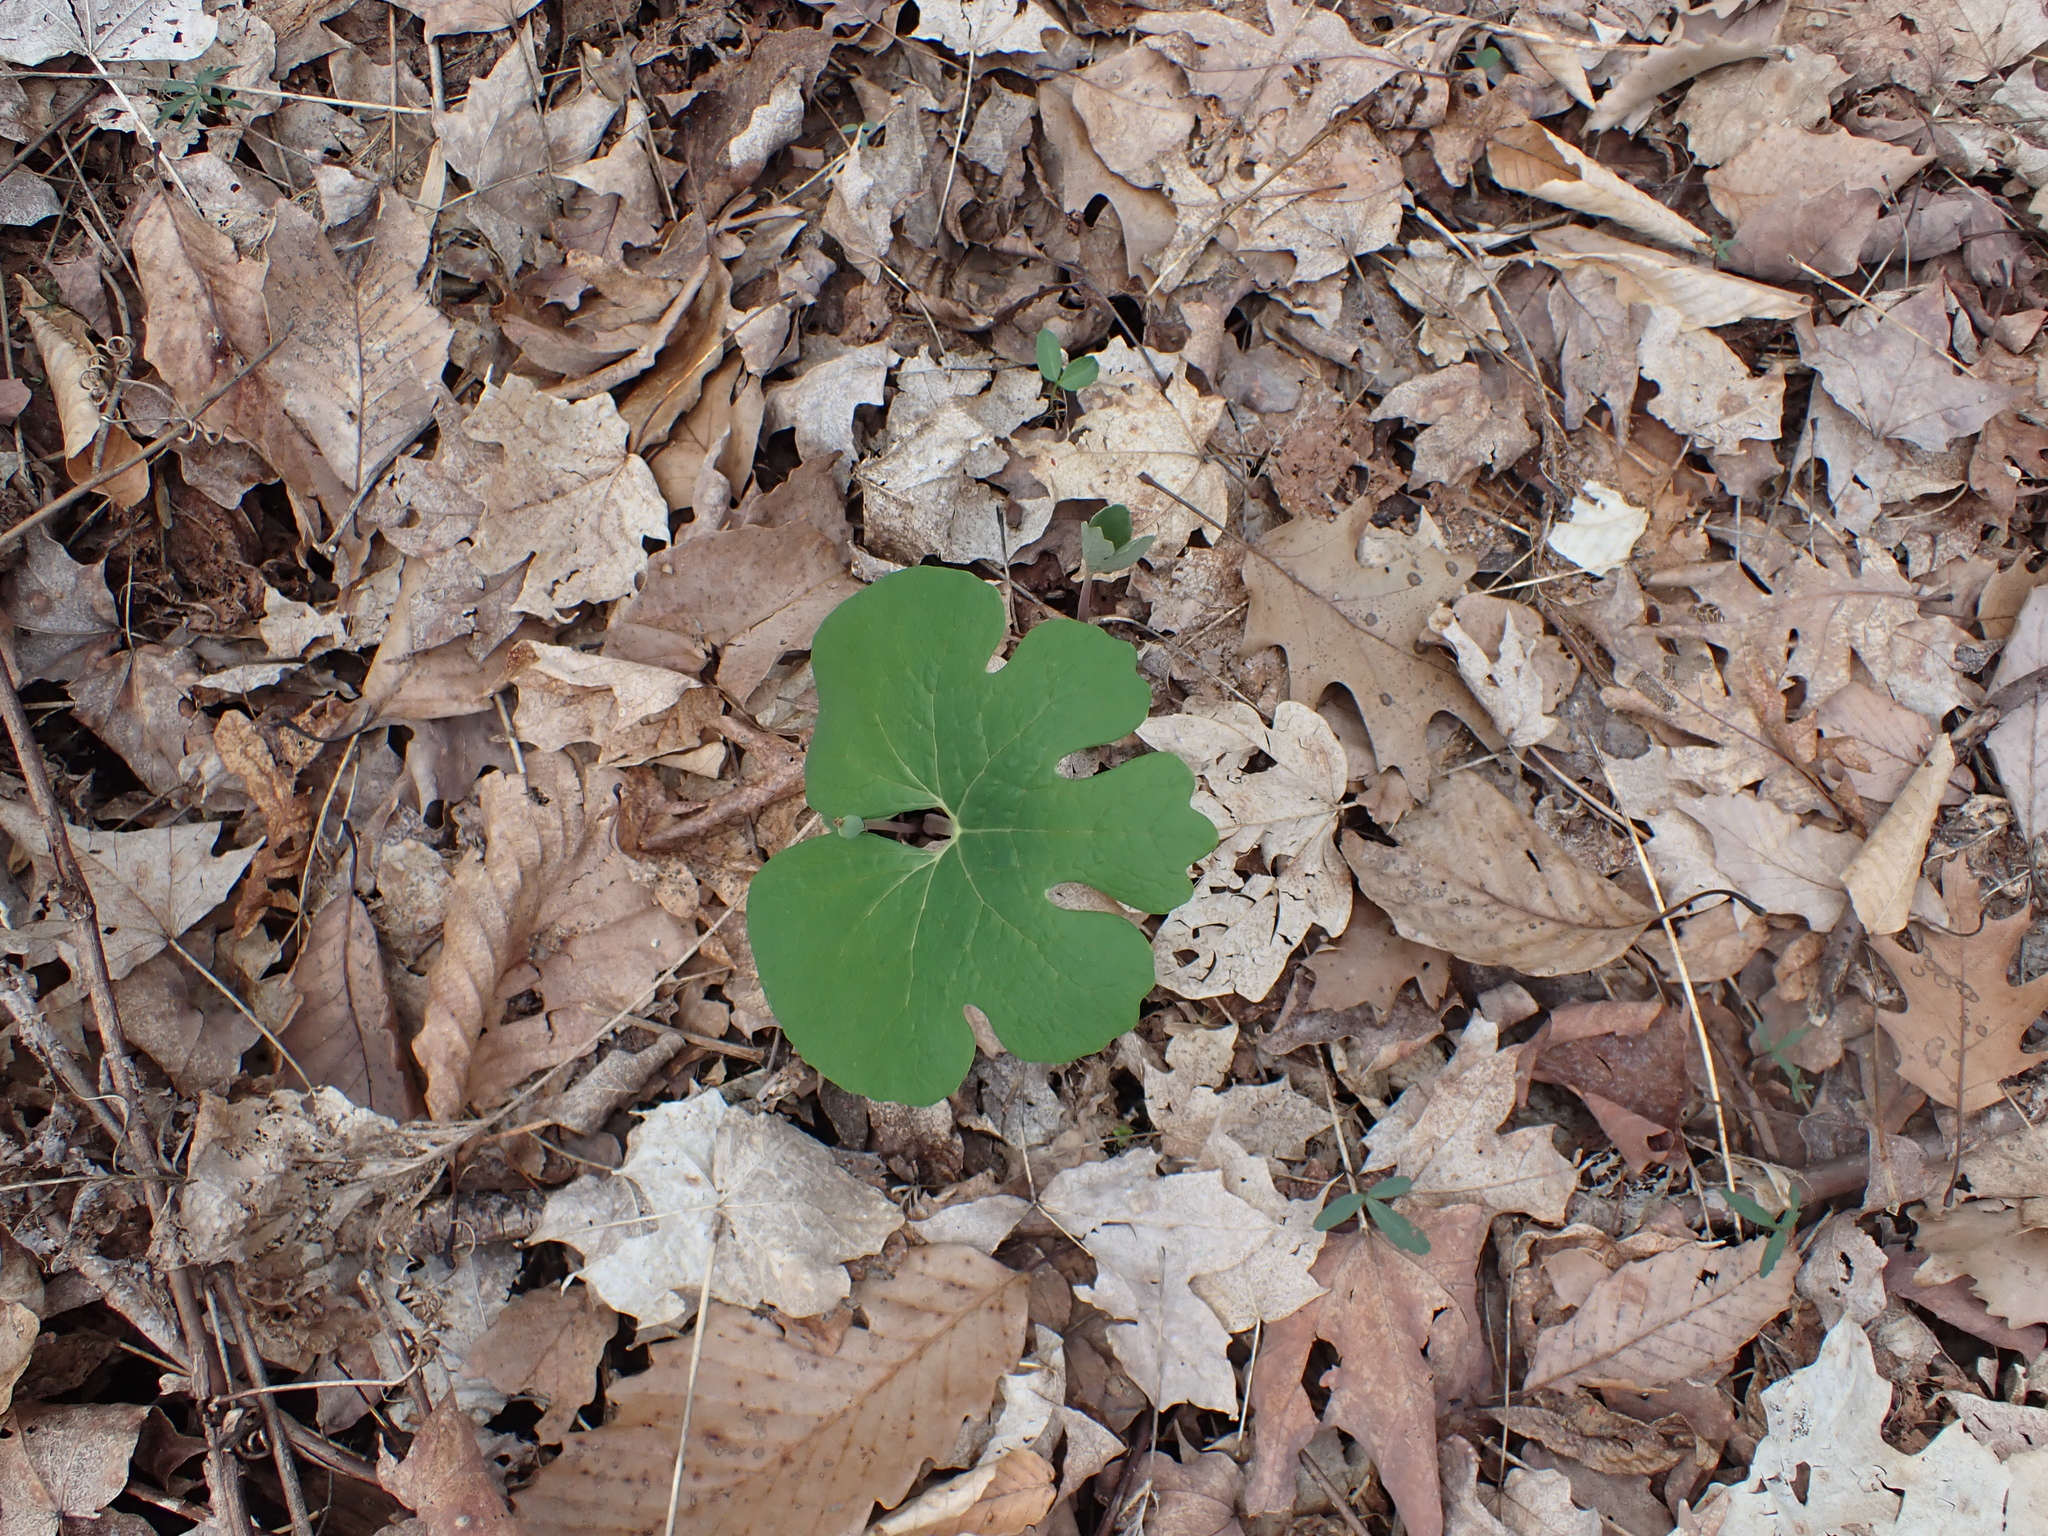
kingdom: Plantae
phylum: Tracheophyta
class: Magnoliopsida
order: Ranunculales
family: Papaveraceae
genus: Sanguinaria
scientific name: Sanguinaria canadensis
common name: Bloodroot
